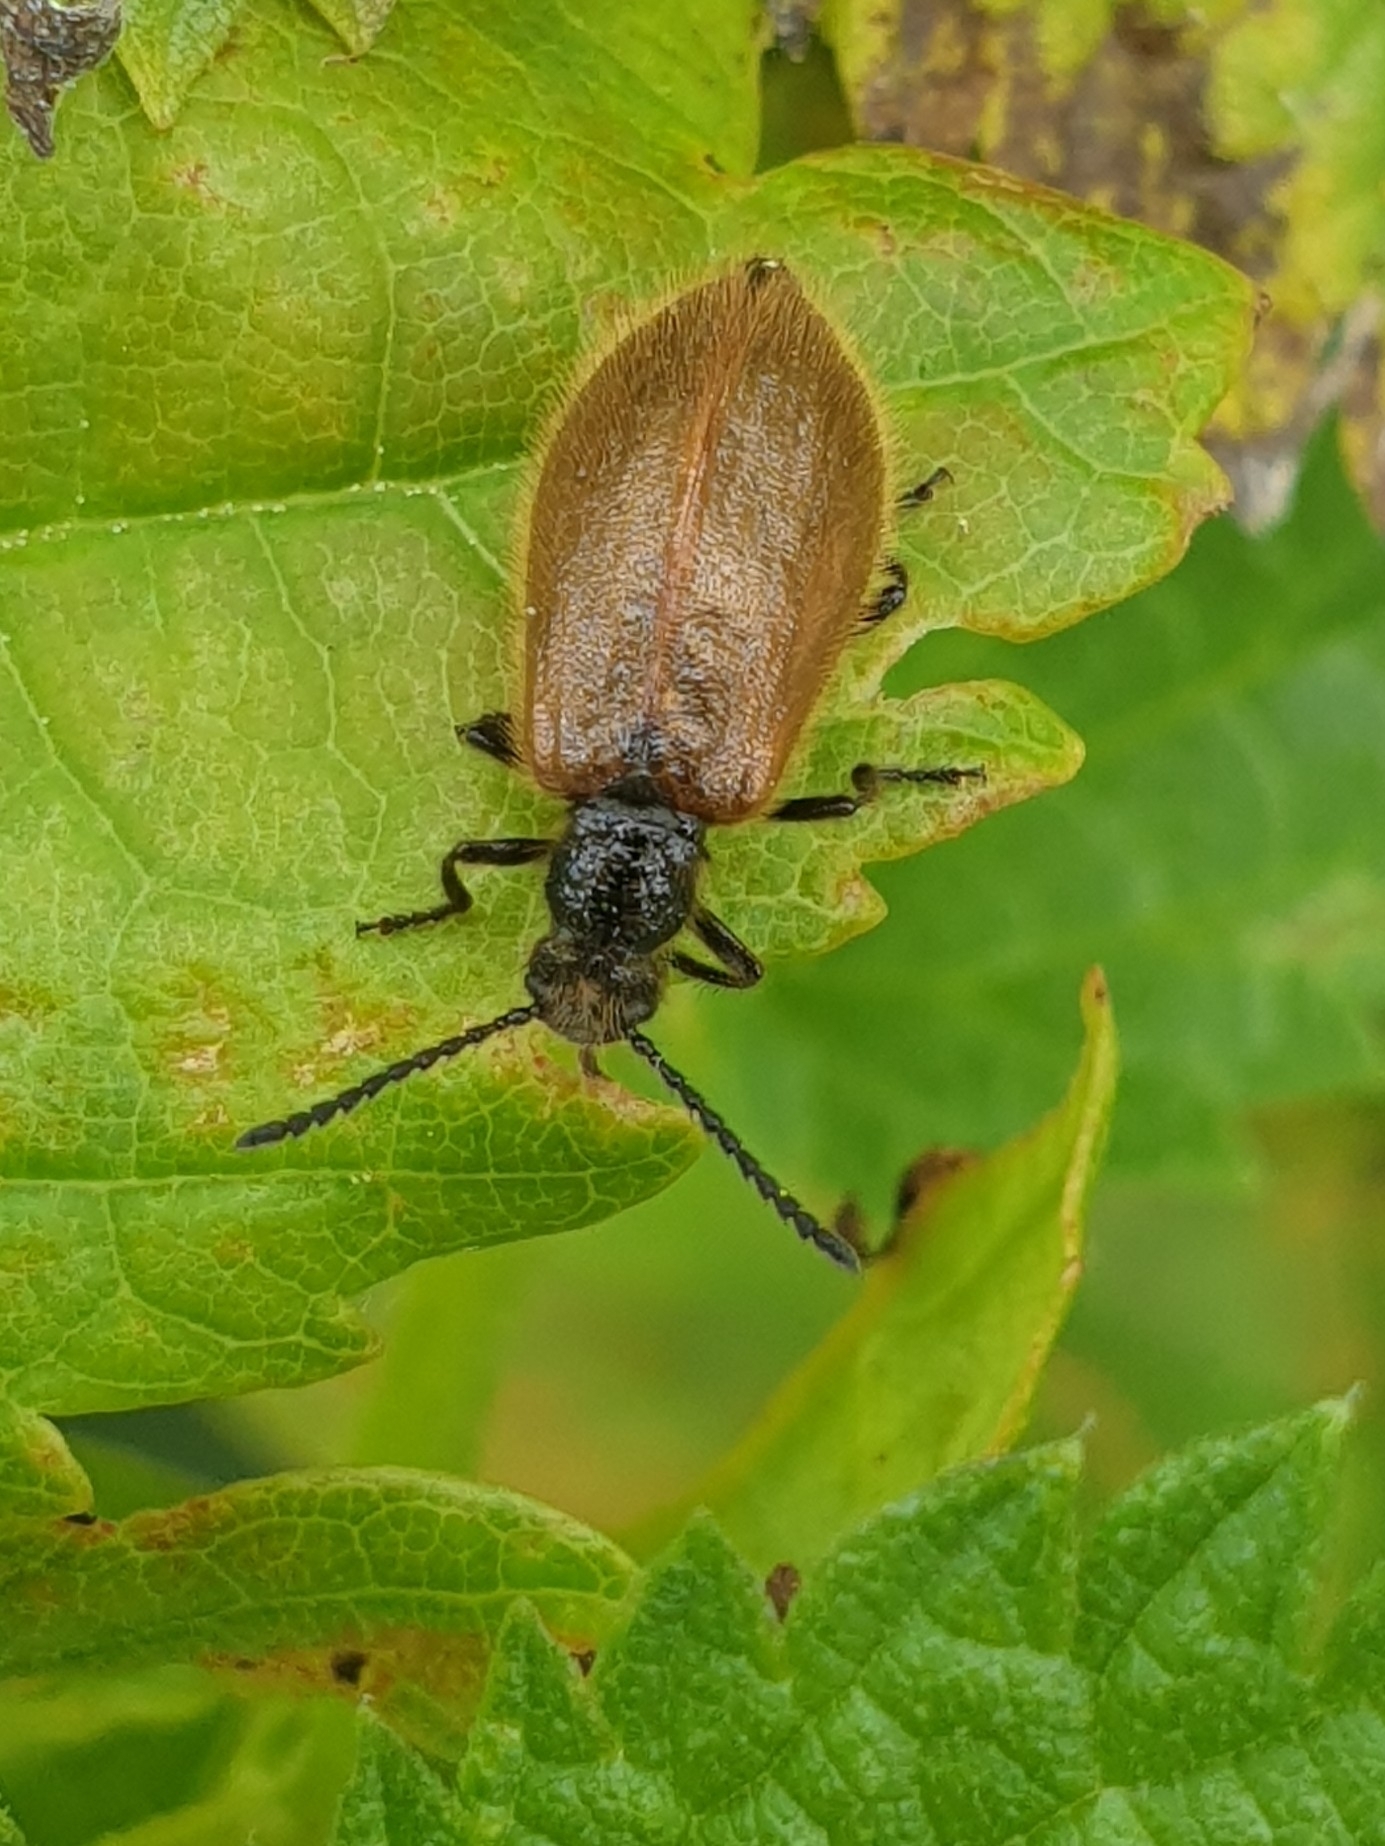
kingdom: Animalia
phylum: Arthropoda
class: Insecta
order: Coleoptera
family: Tenebrionidae
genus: Lagria
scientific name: Lagria hirta
